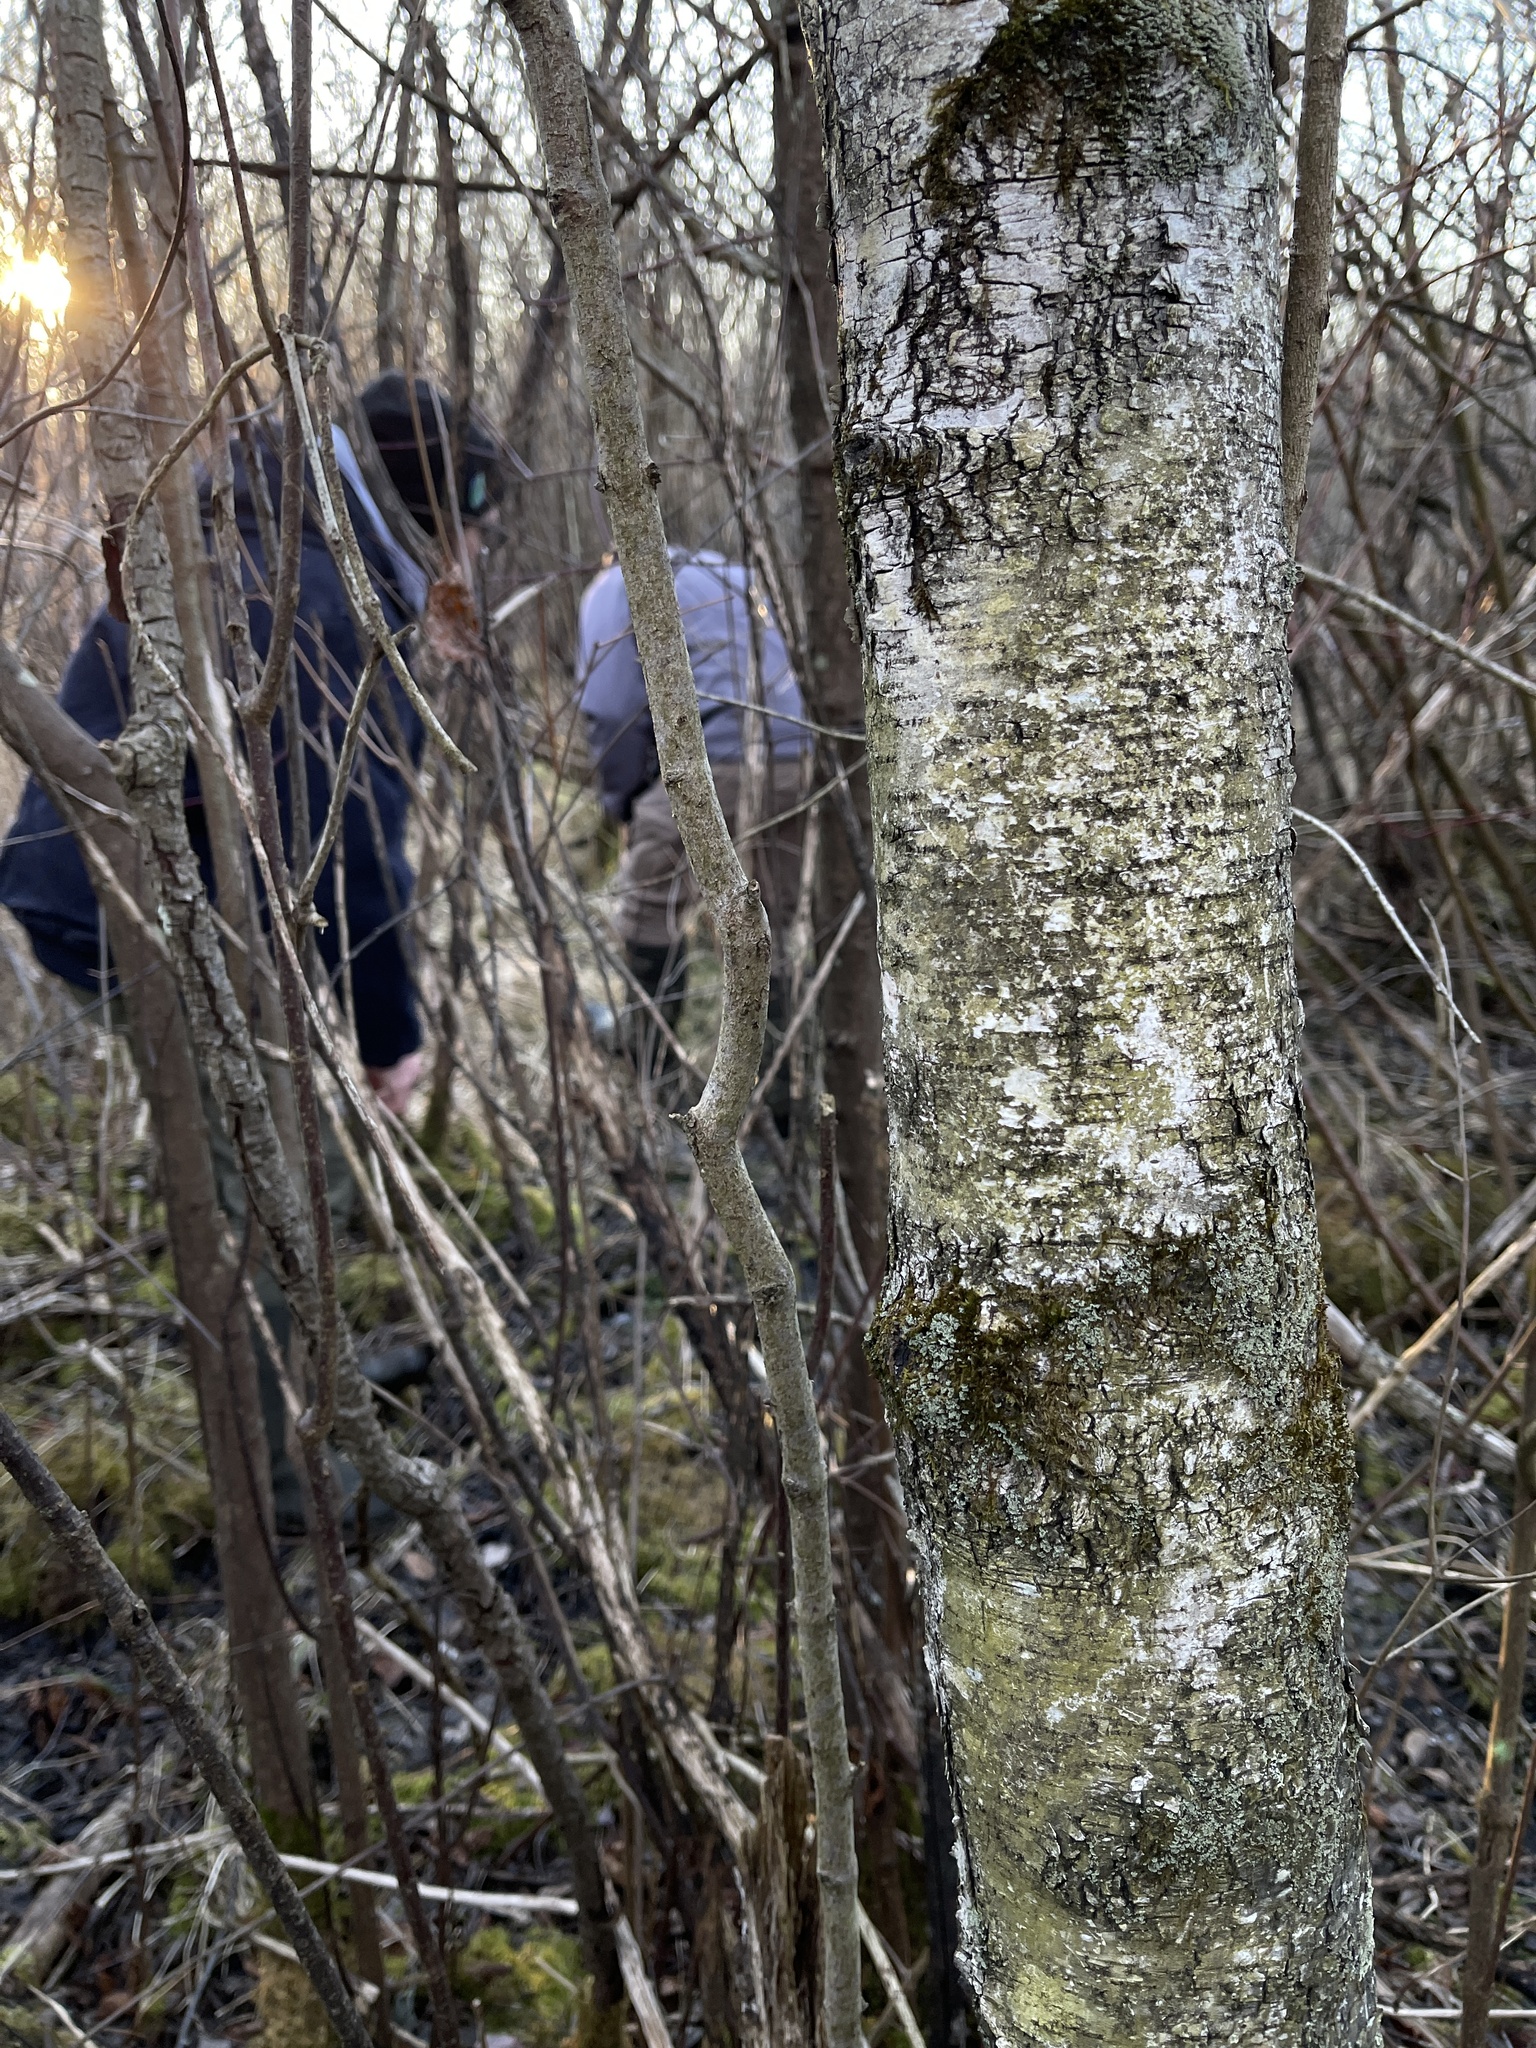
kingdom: Plantae
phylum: Tracheophyta
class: Magnoliopsida
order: Fagales
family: Betulaceae
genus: Betula
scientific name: Betula papyrifera
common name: Paper birch
